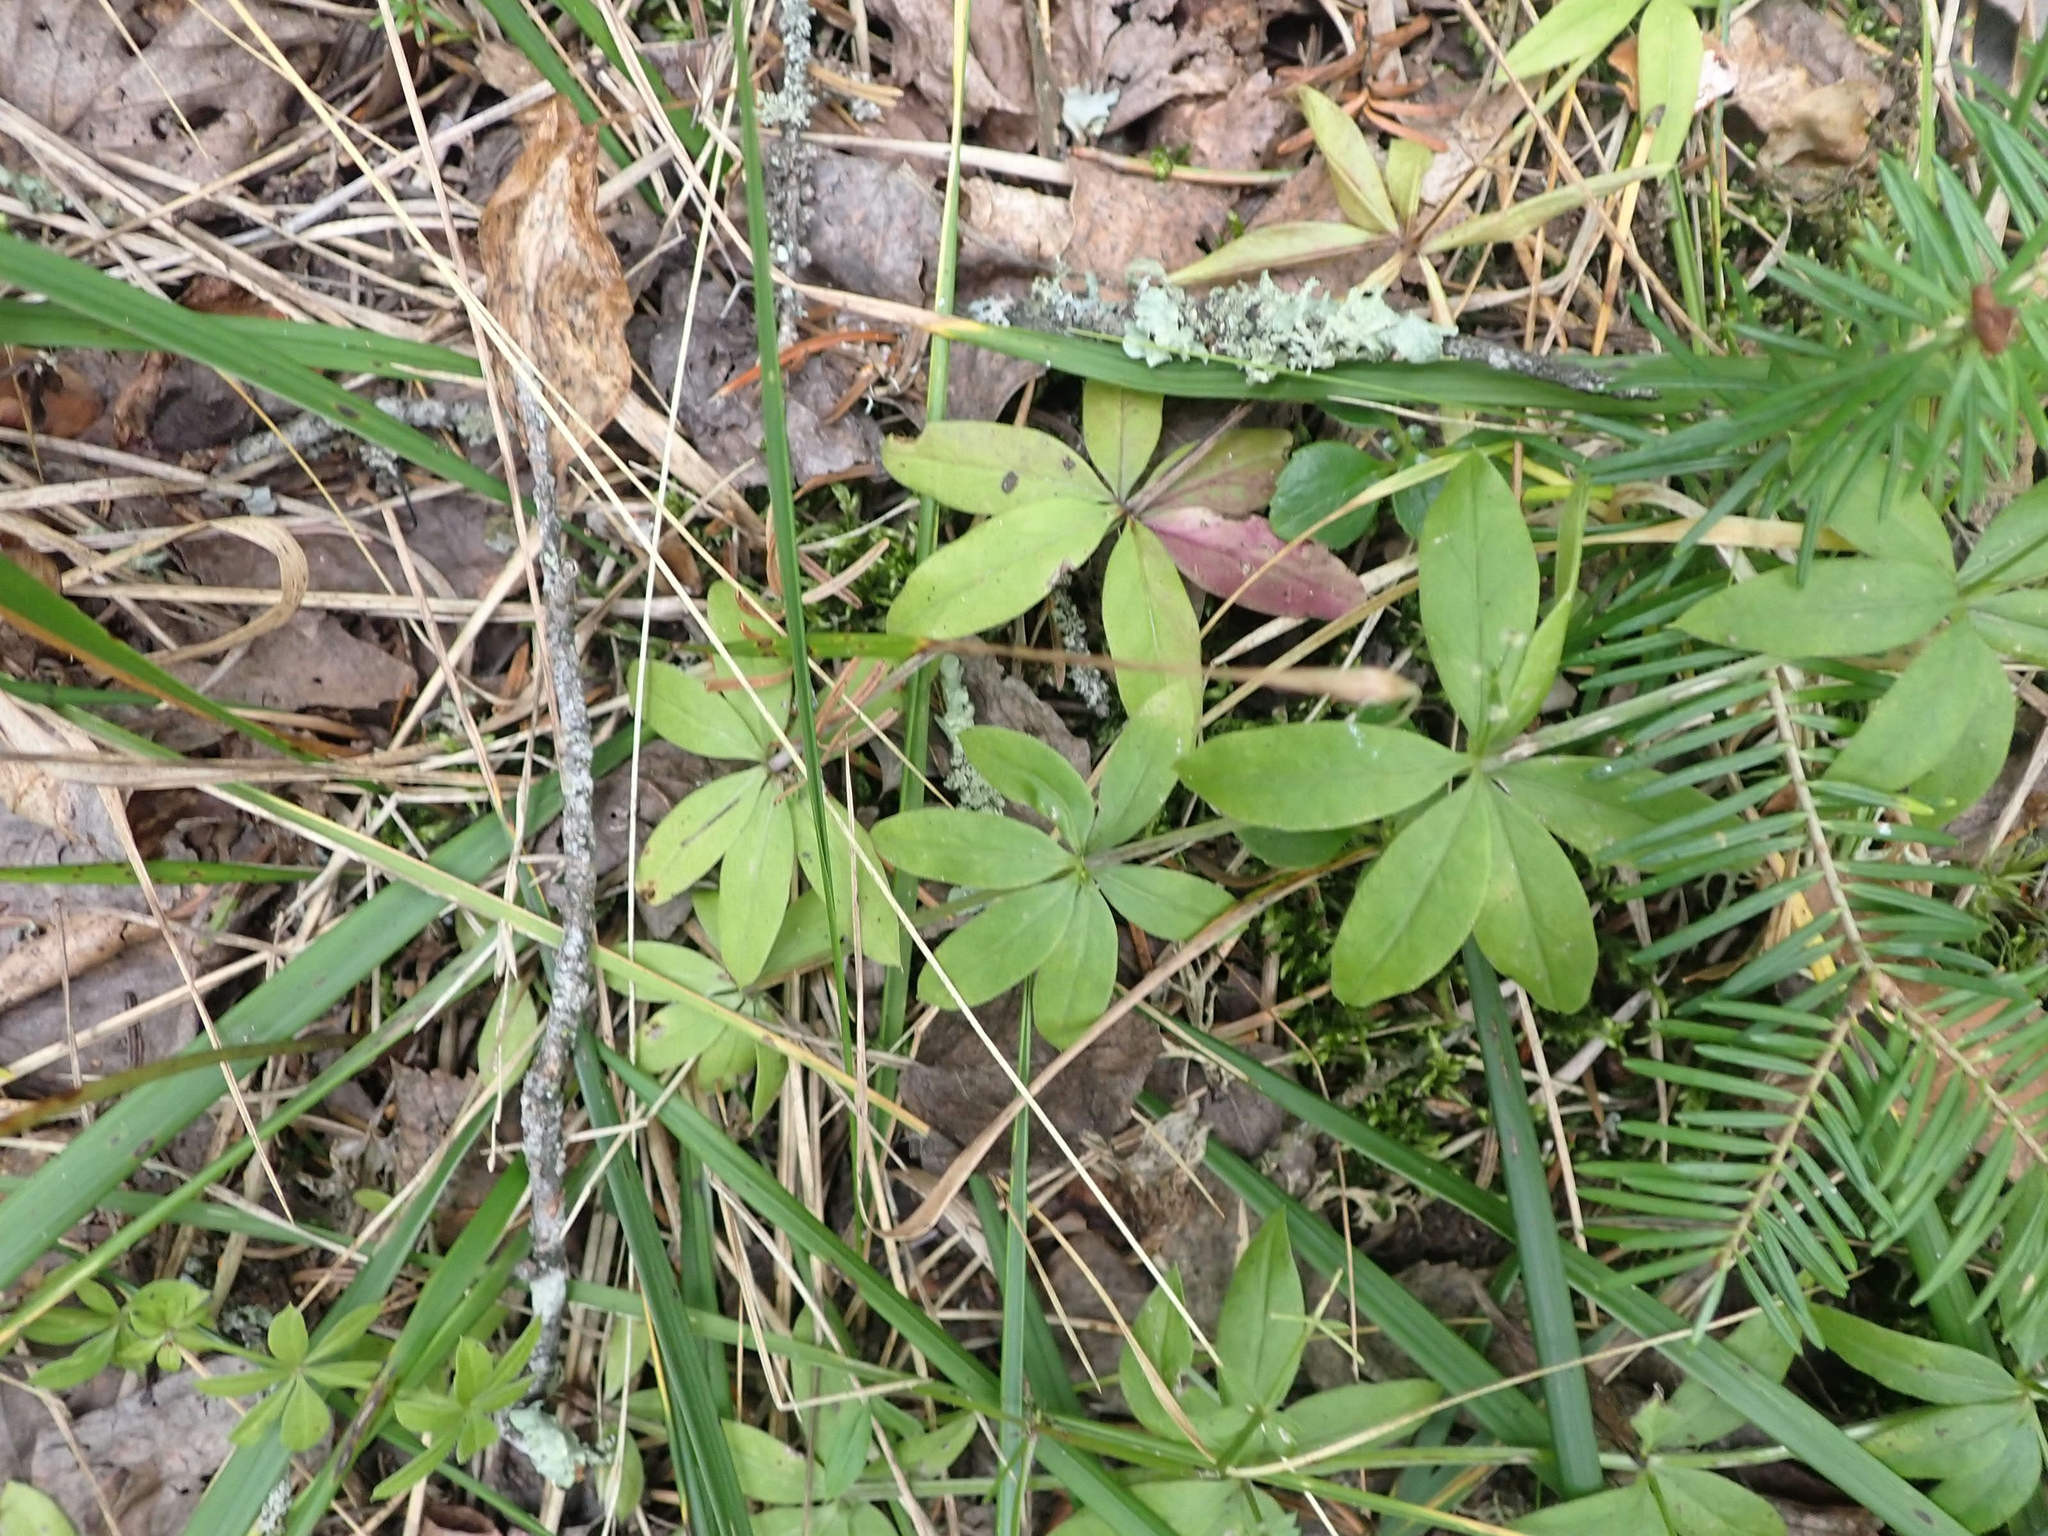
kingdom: Plantae
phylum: Tracheophyta
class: Magnoliopsida
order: Gentianales
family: Rubiaceae
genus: Galium
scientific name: Galium triflorum
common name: Fragrant bedstraw
